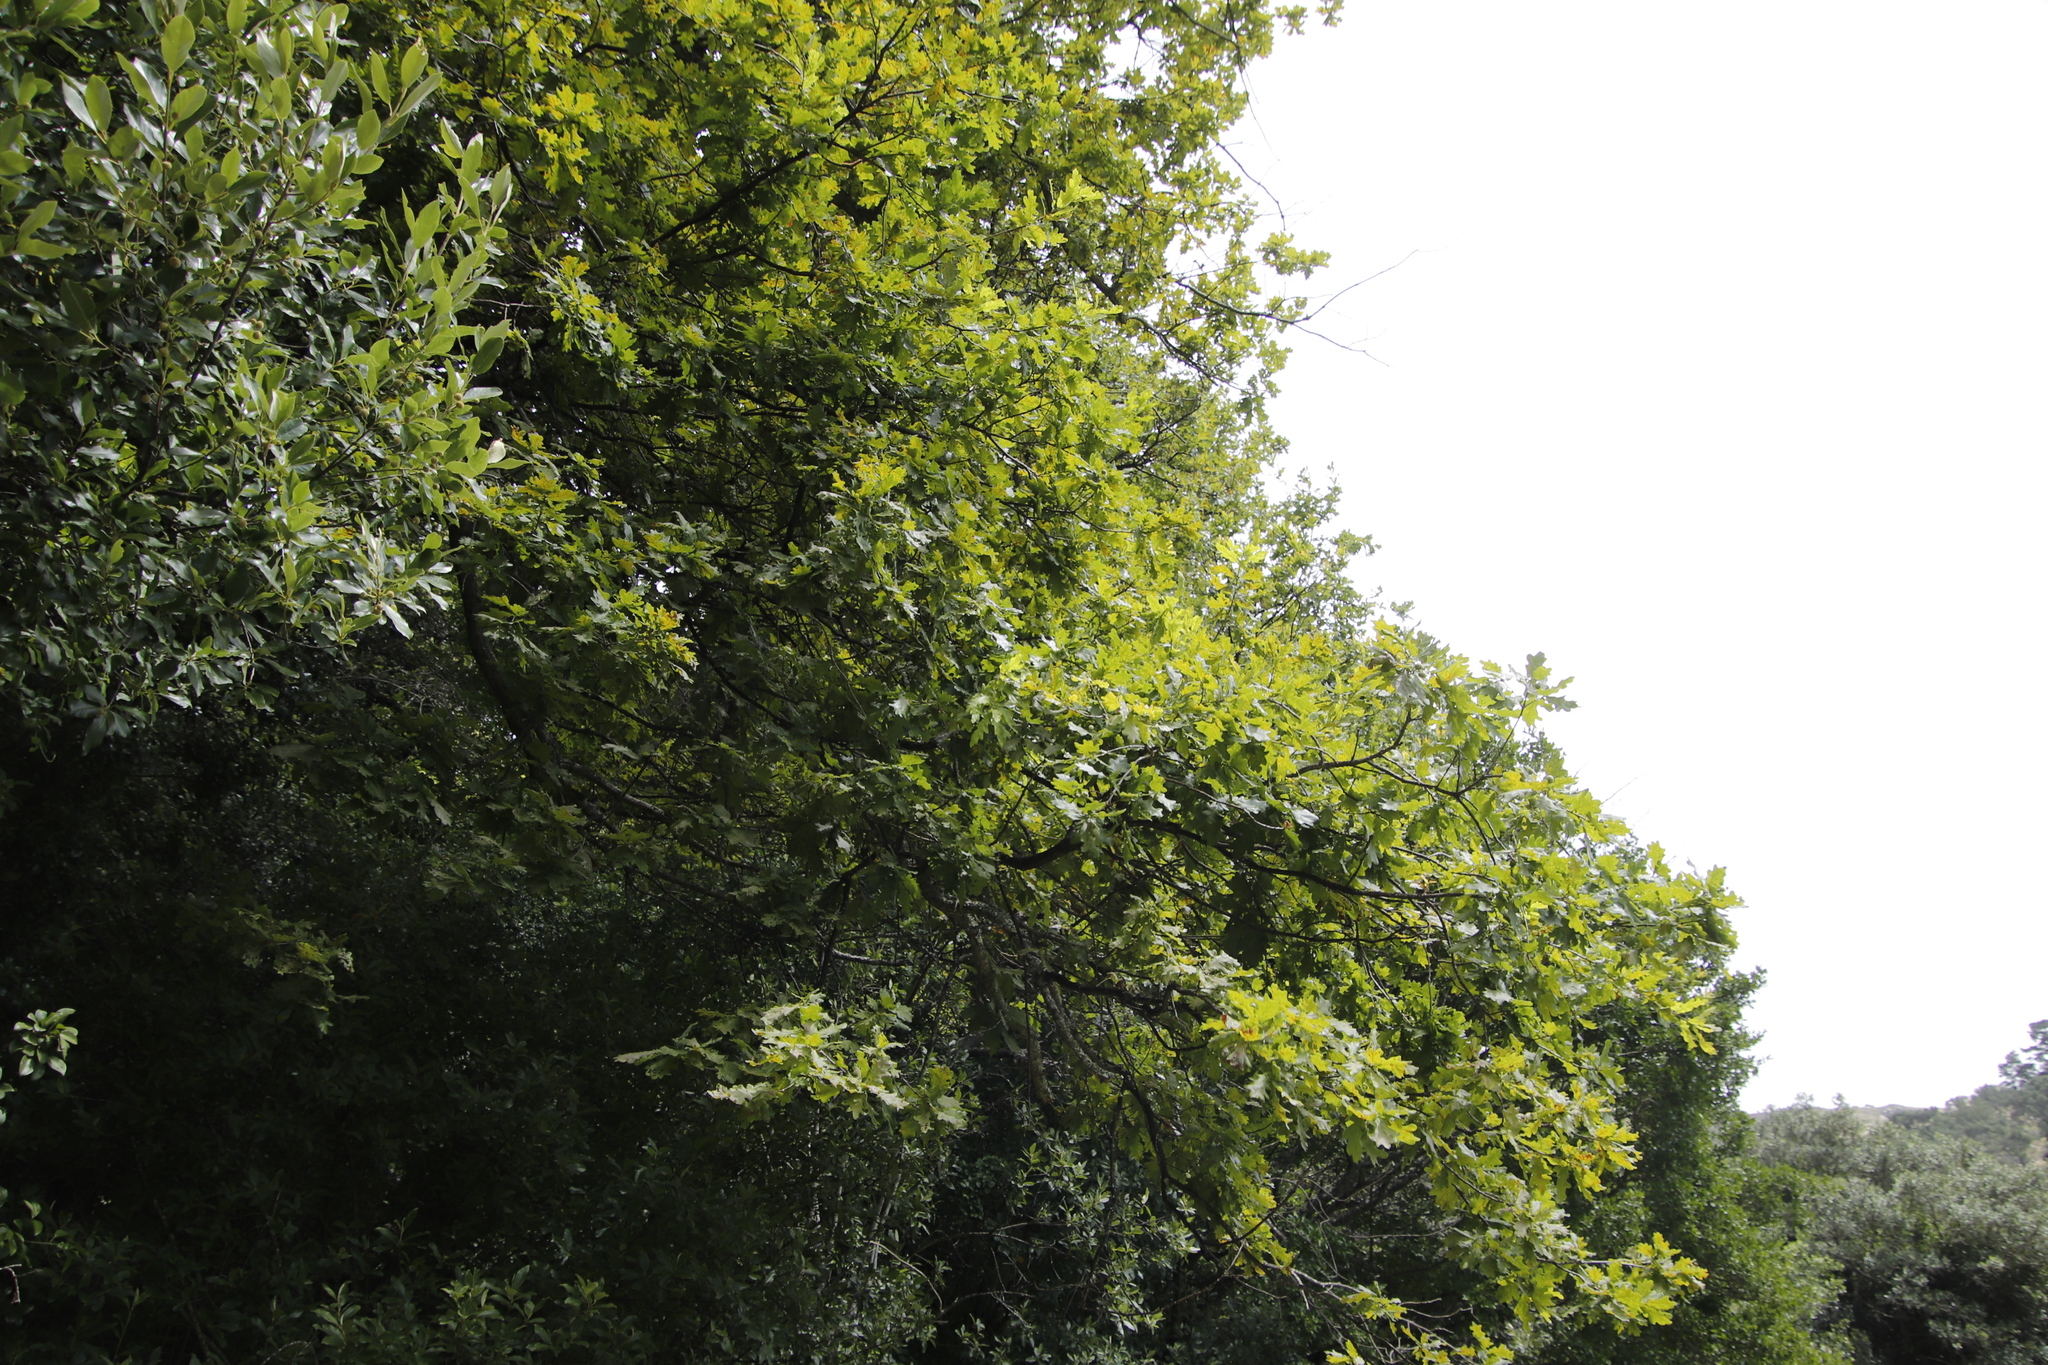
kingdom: Plantae
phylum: Tracheophyta
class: Magnoliopsida
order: Fagales
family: Fagaceae
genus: Quercus
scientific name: Quercus robur
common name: Pedunculate oak
